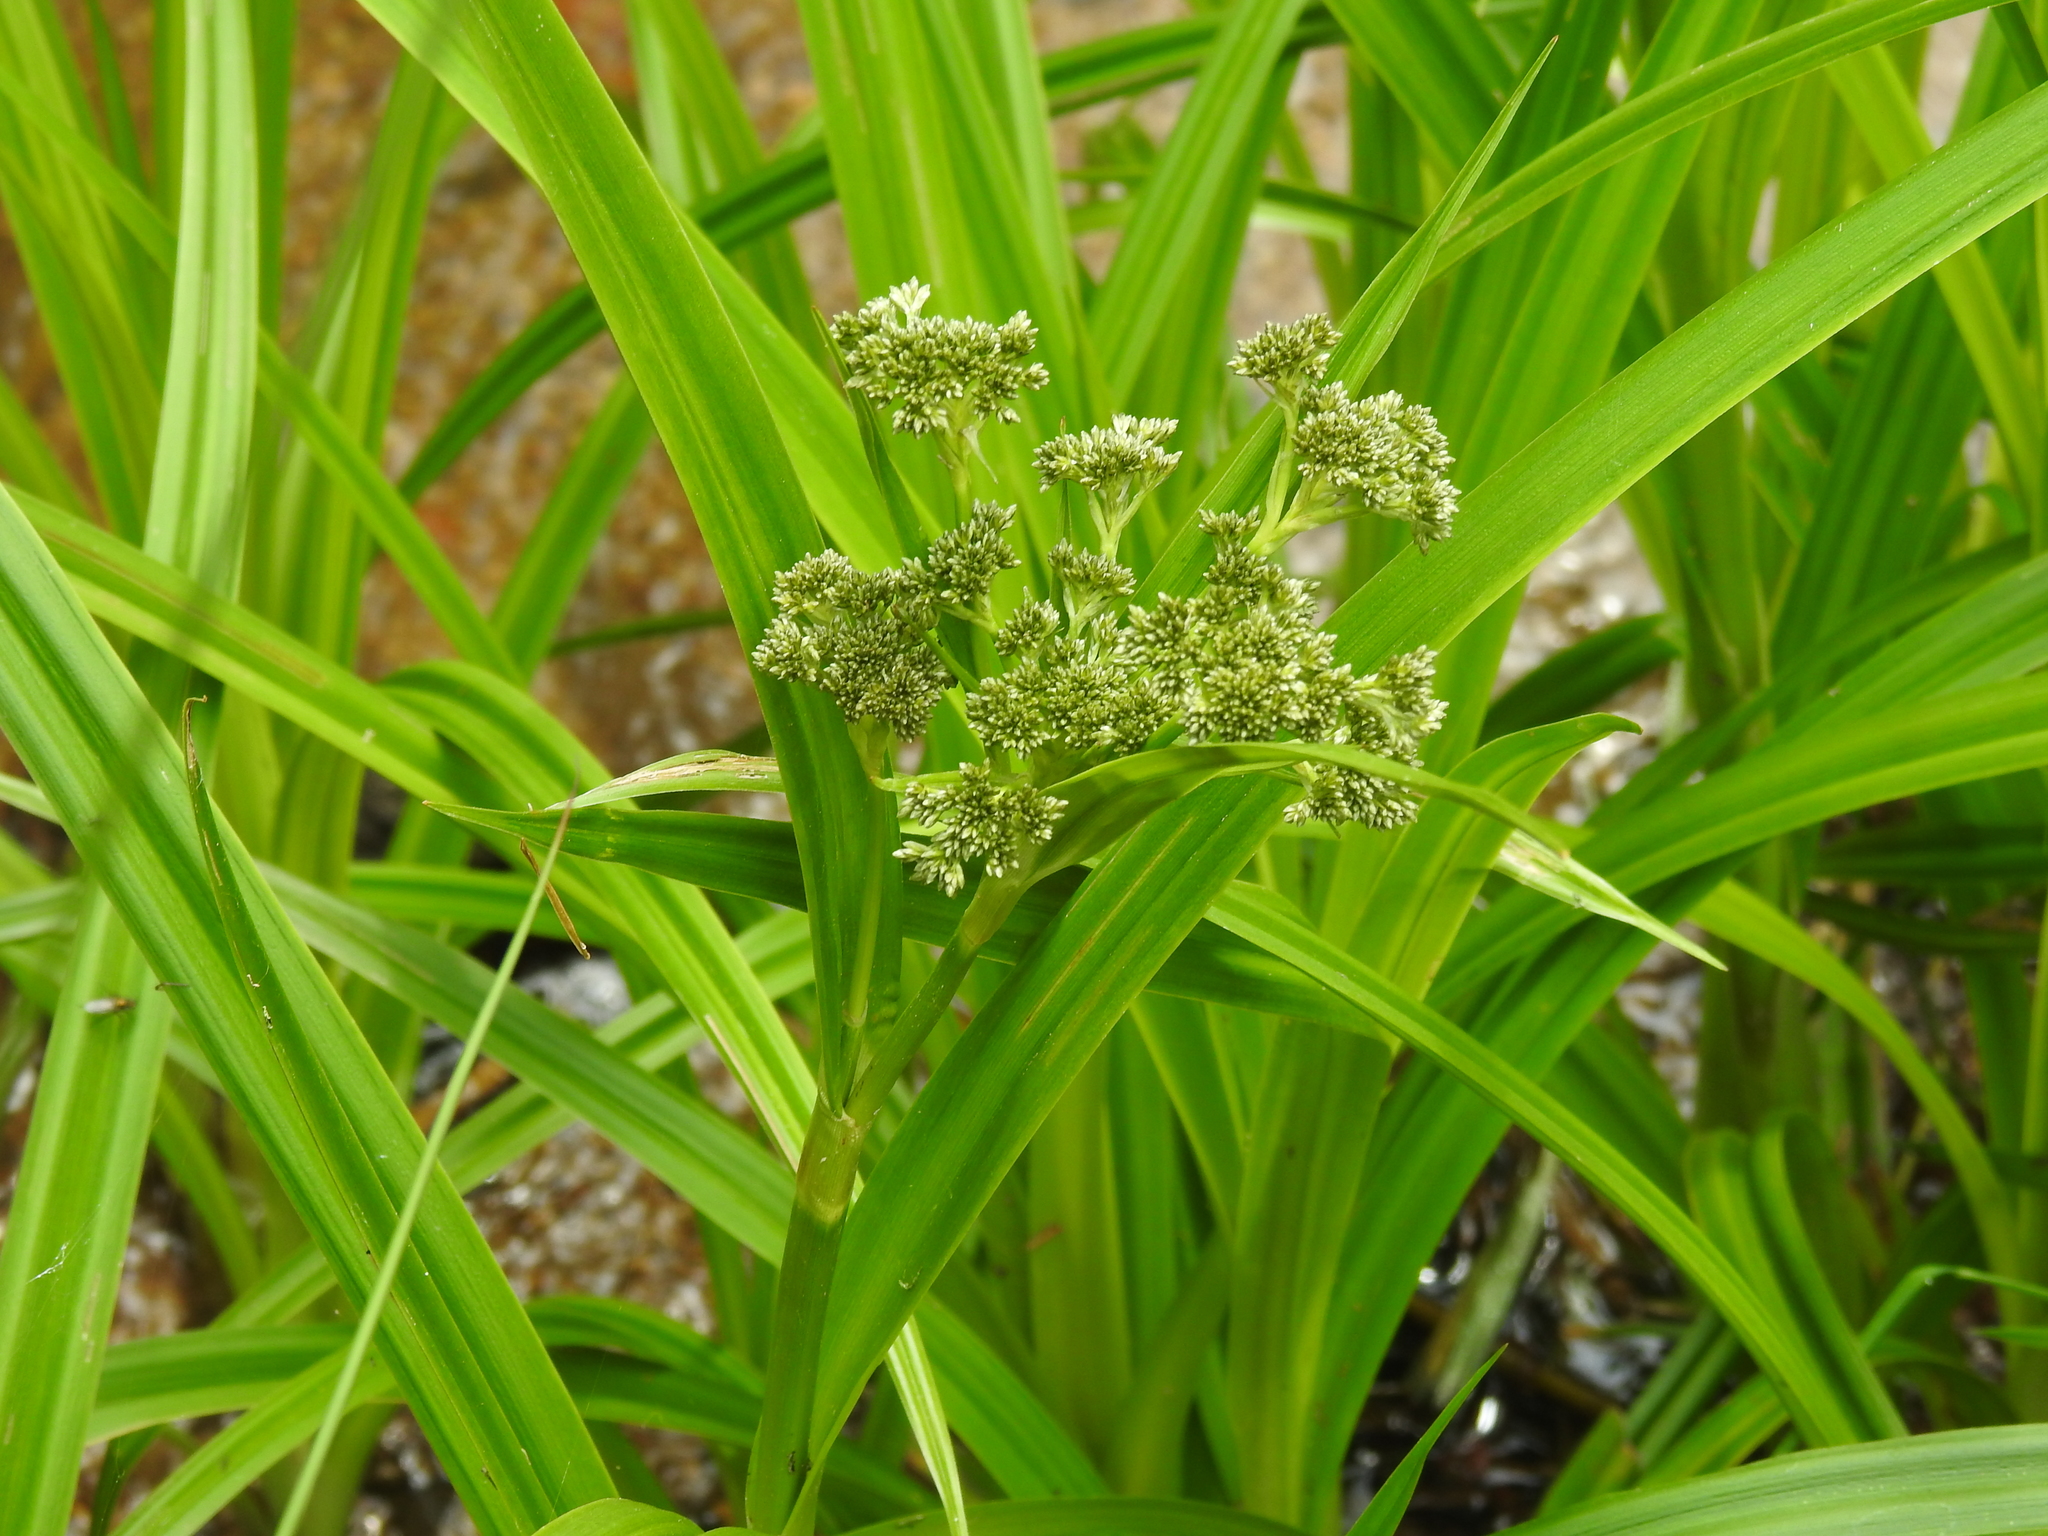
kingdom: Plantae
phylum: Tracheophyta
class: Liliopsida
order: Poales
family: Cyperaceae
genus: Scirpus
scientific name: Scirpus sylvaticus
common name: Wood club-rush
